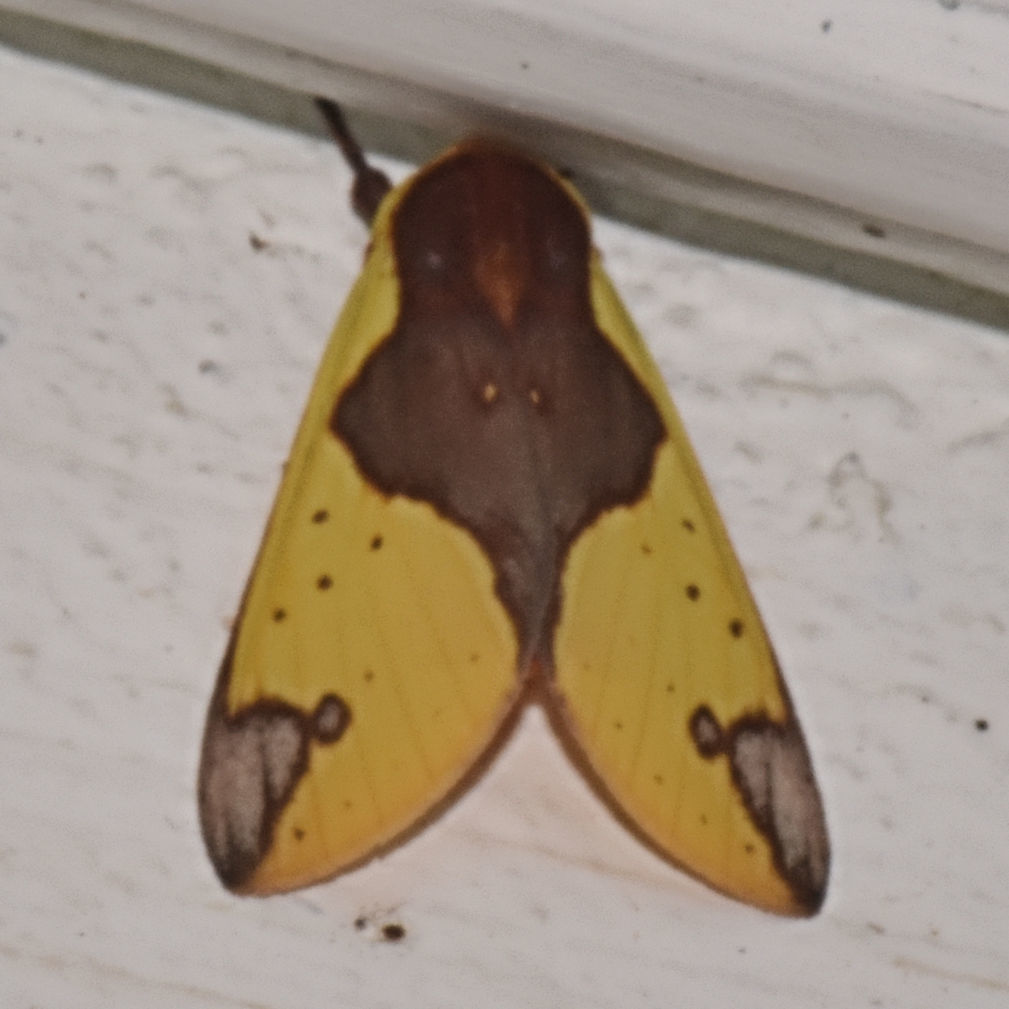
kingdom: Animalia
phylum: Arthropoda
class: Insecta
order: Lepidoptera
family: Erebidae
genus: Symphlebia
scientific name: Symphlebia jamaicensis
